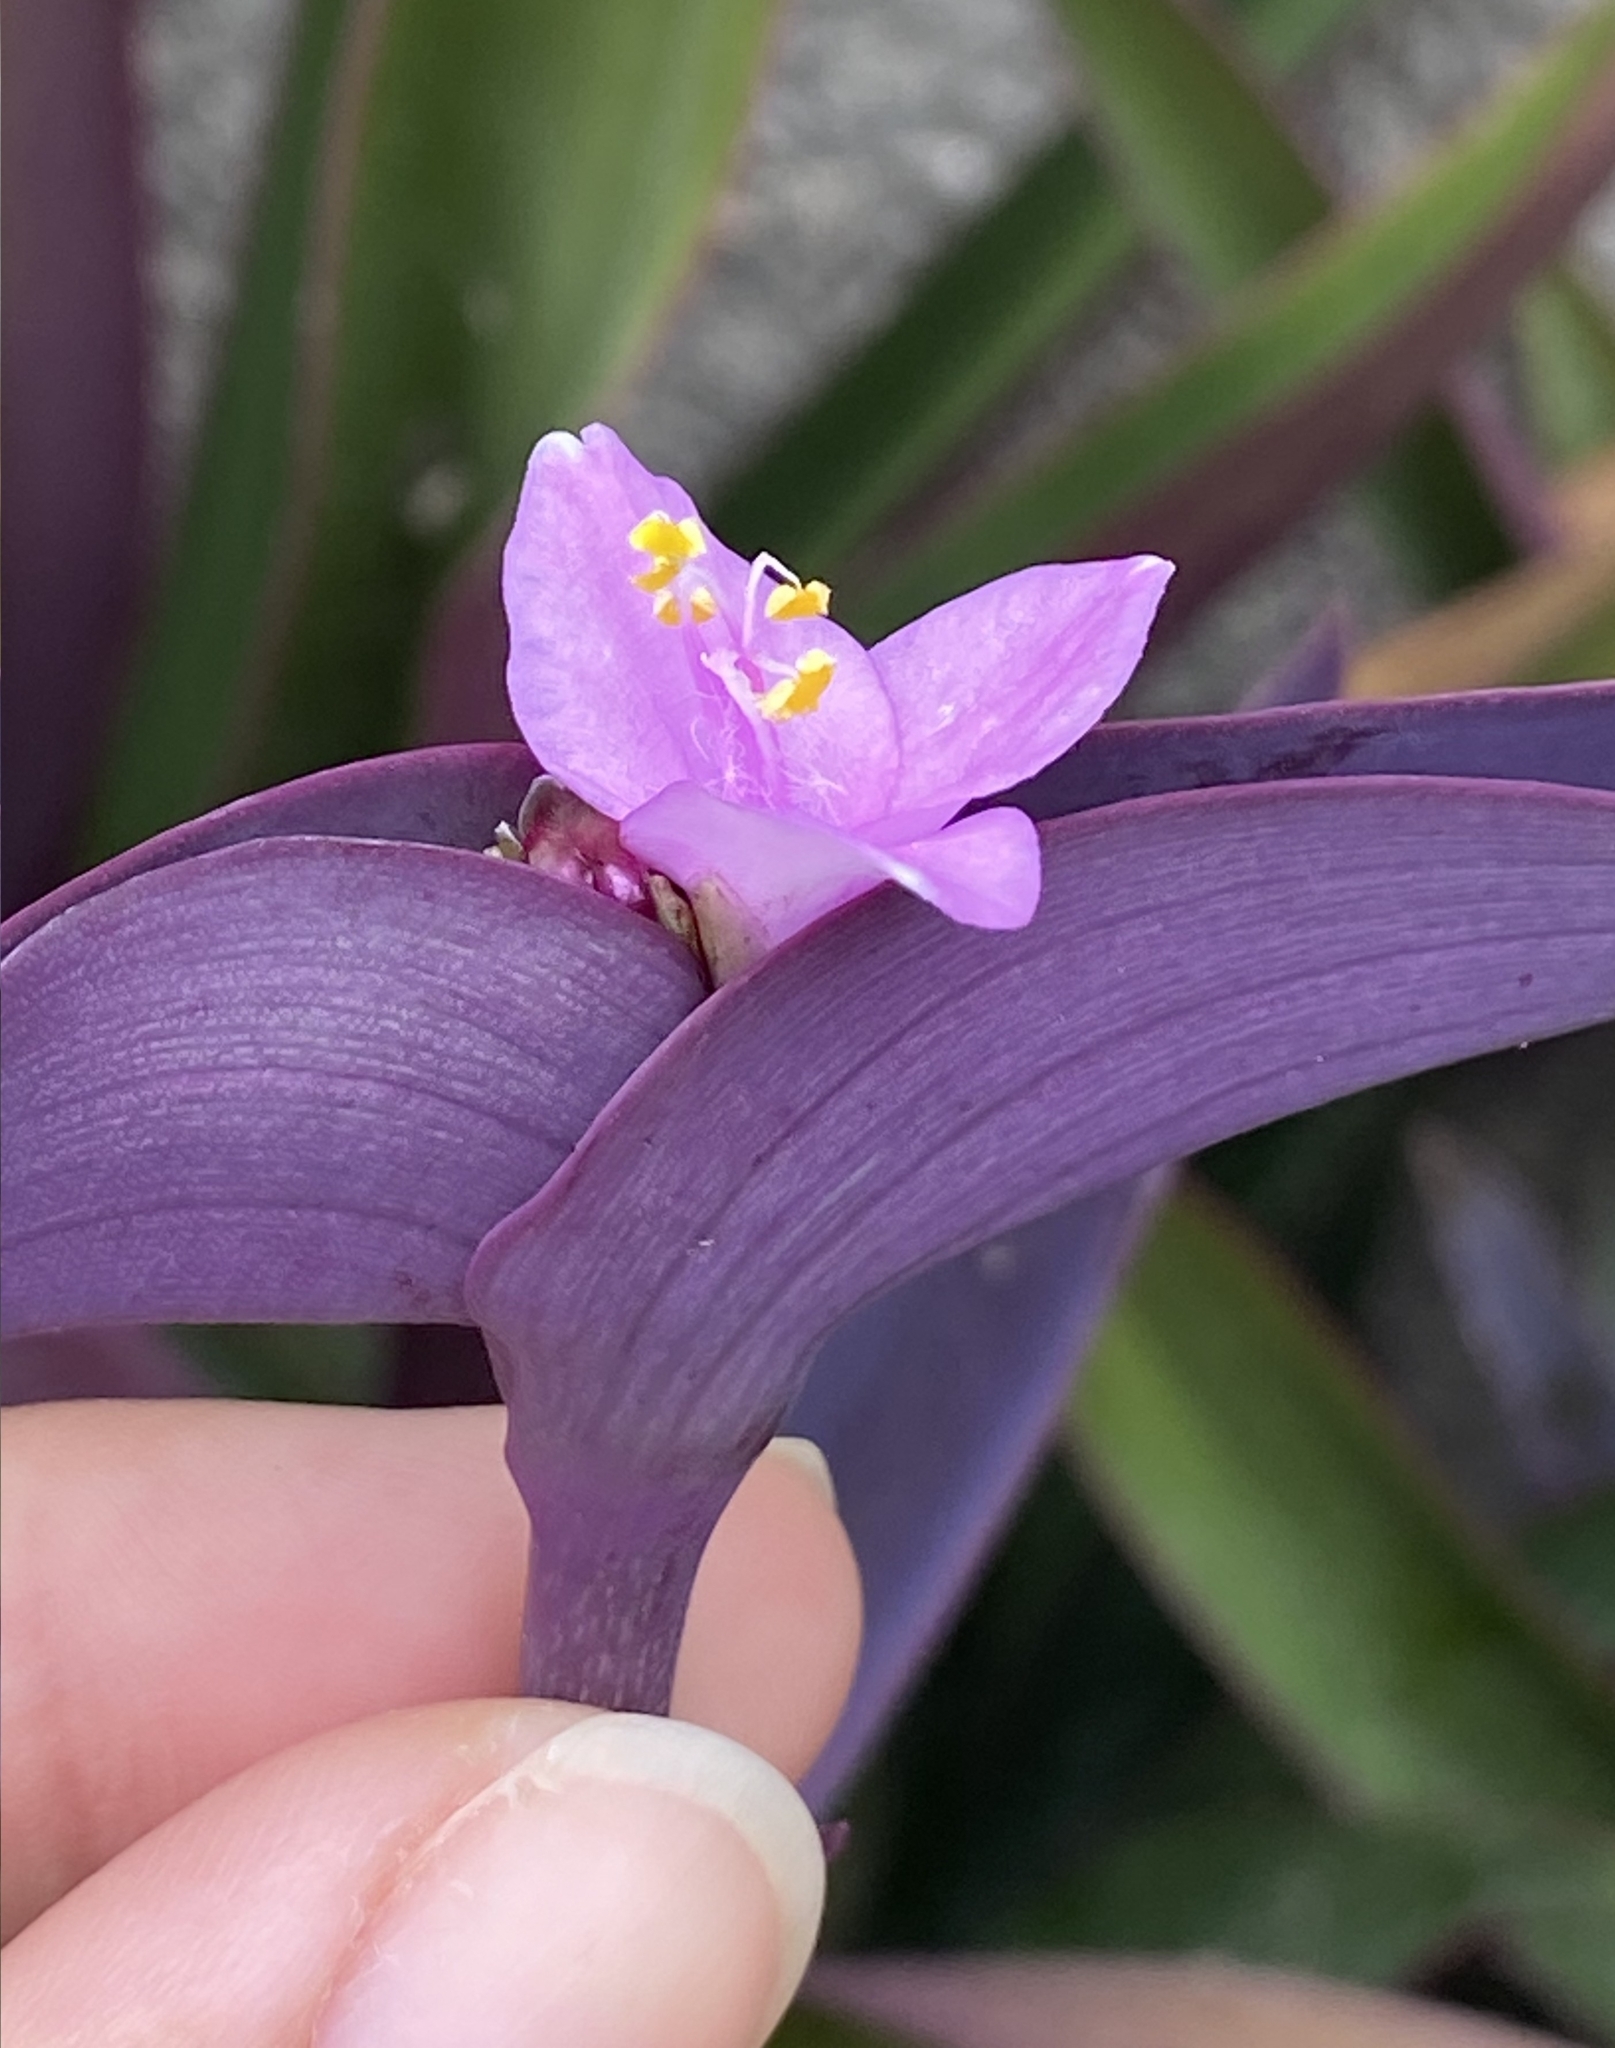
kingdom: Plantae
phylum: Tracheophyta
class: Liliopsida
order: Commelinales
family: Commelinaceae
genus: Tradescantia
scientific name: Tradescantia pallida
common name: Purpleheart
